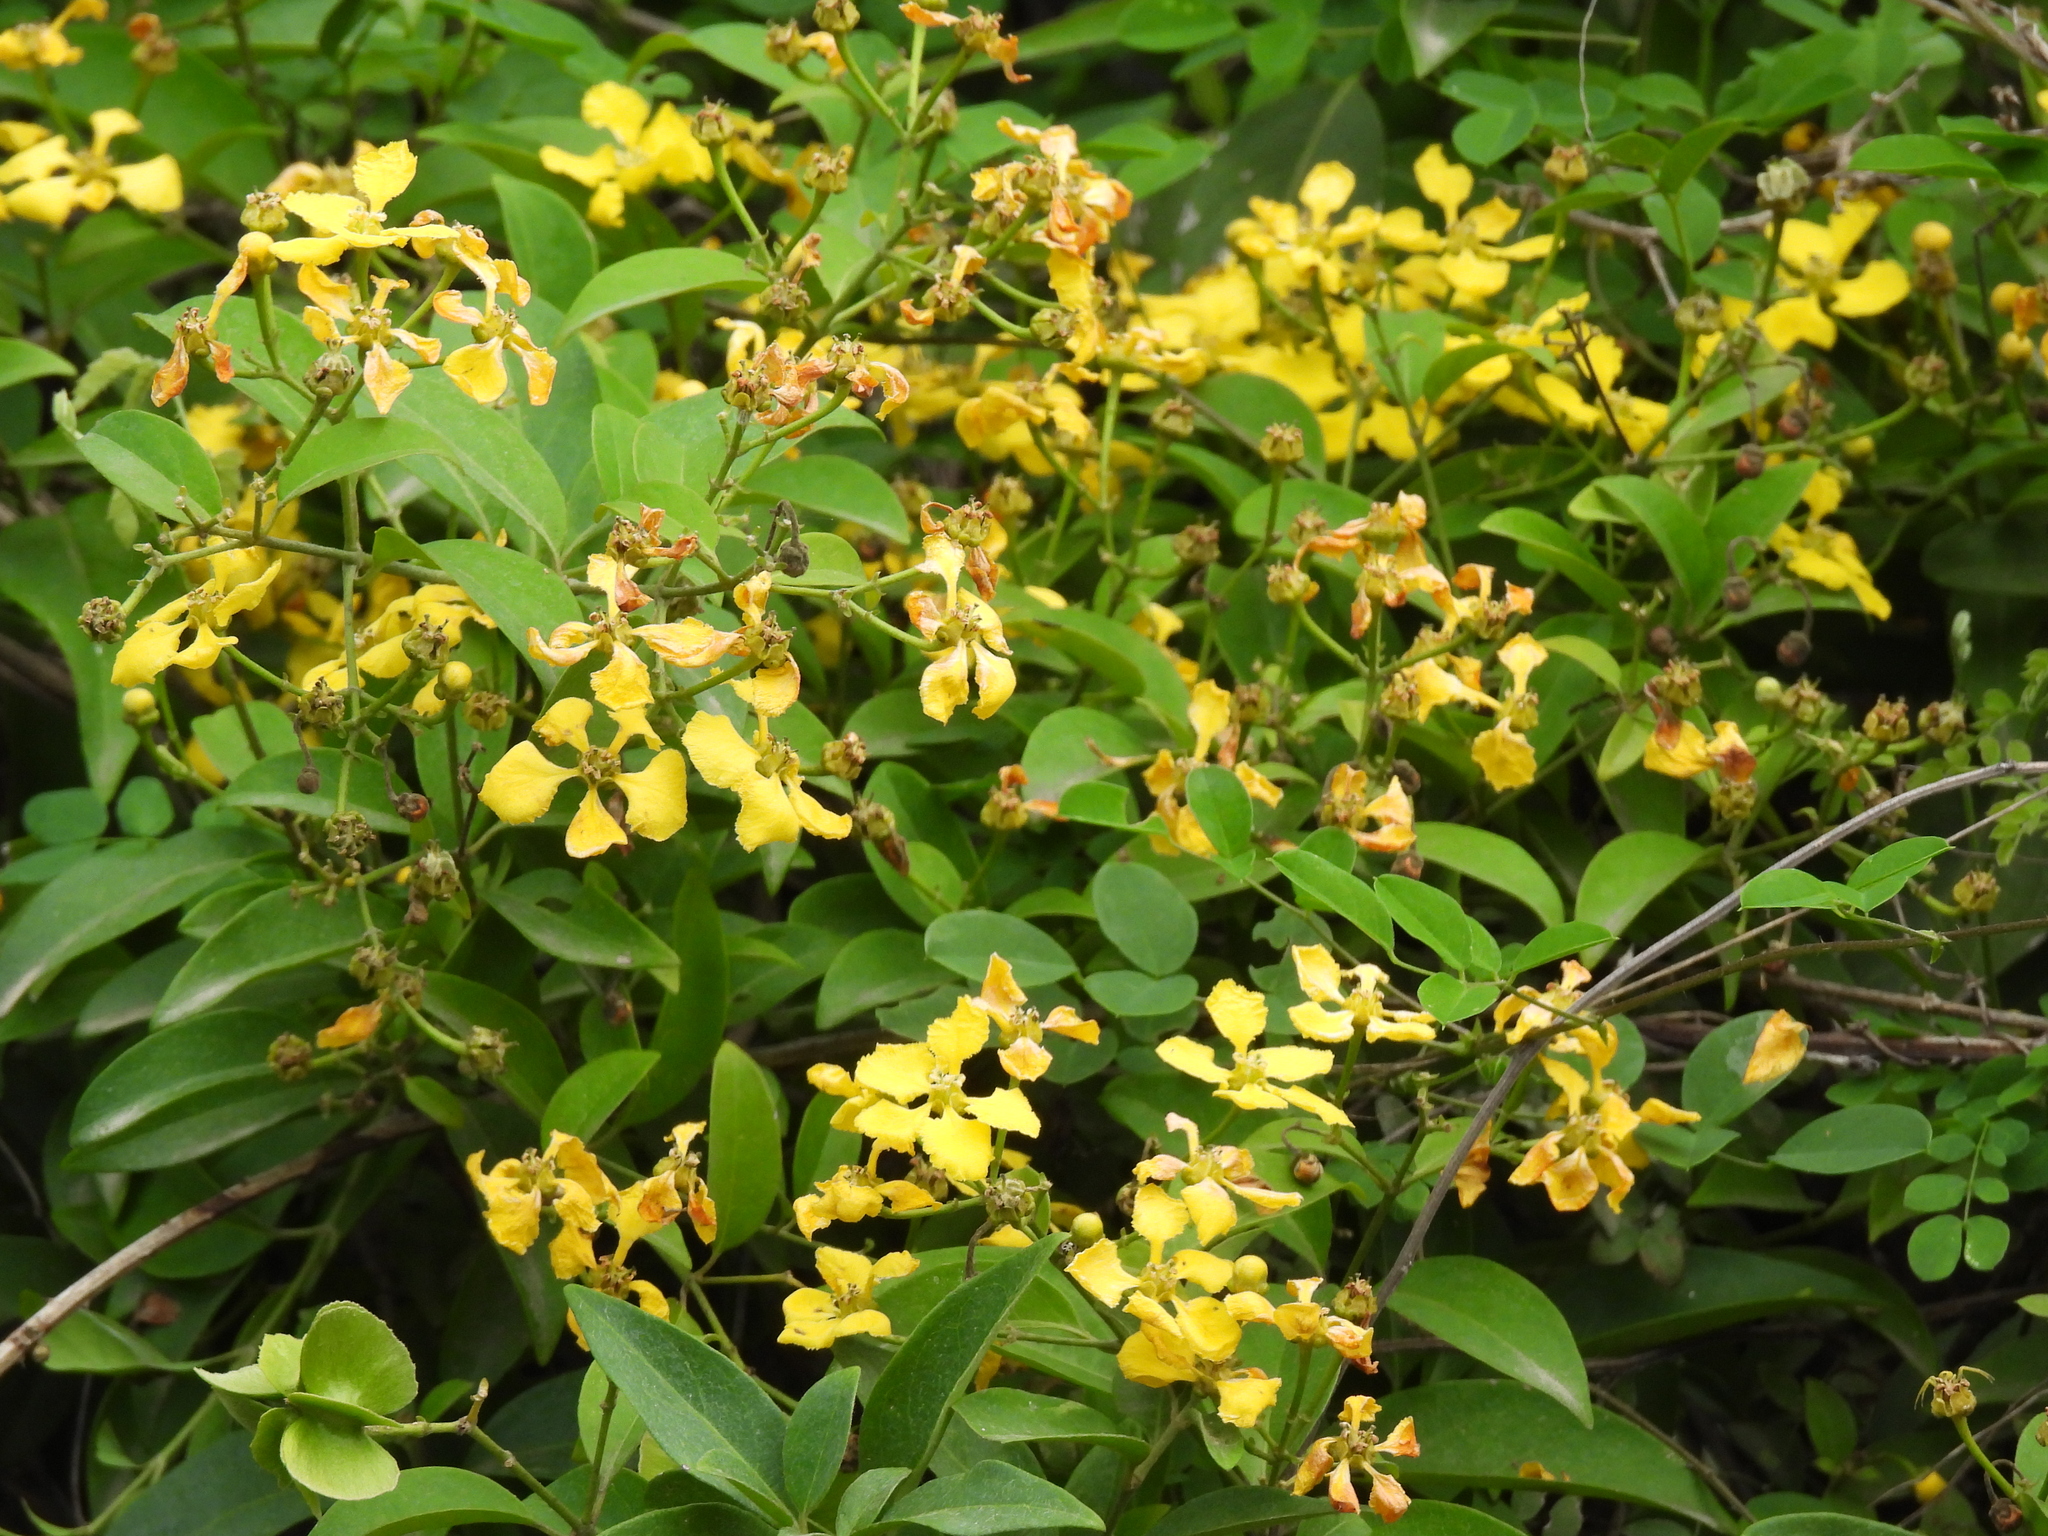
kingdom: Plantae
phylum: Tracheophyta
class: Magnoliopsida
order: Malpighiales
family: Malpighiaceae
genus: Callaeum
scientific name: Callaeum macropterum
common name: Mexican butterfly-vine
